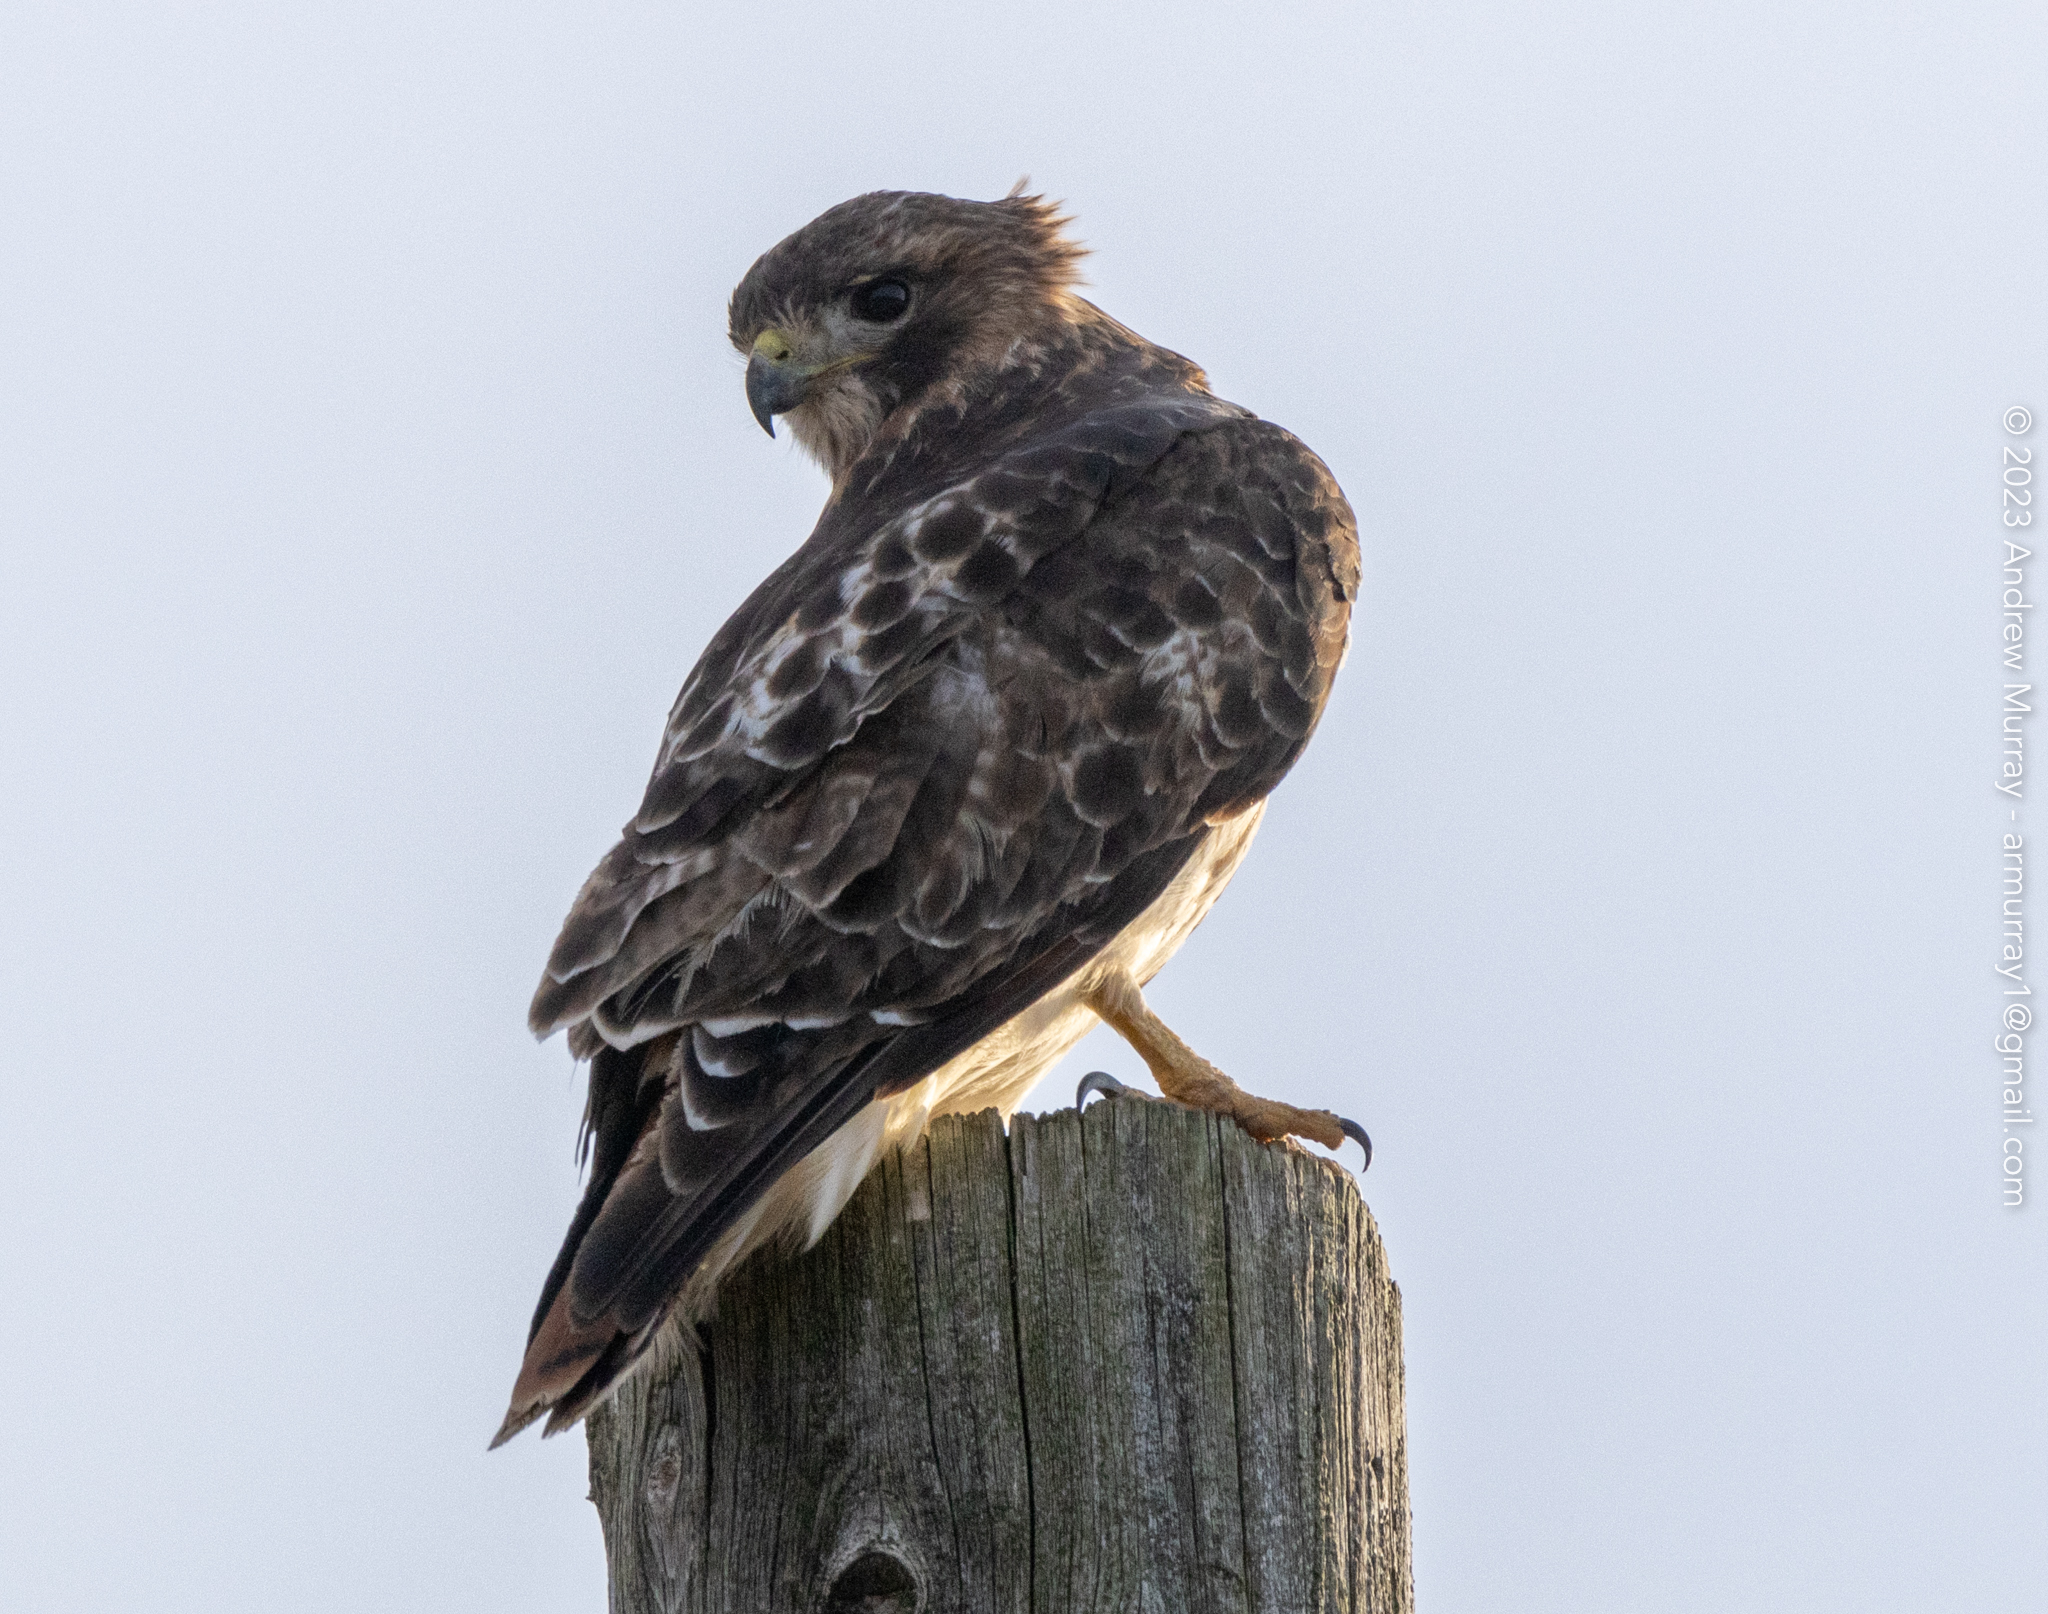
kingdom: Animalia
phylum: Chordata
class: Aves
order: Accipitriformes
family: Accipitridae
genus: Buteo
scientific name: Buteo jamaicensis
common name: Red-tailed hawk
